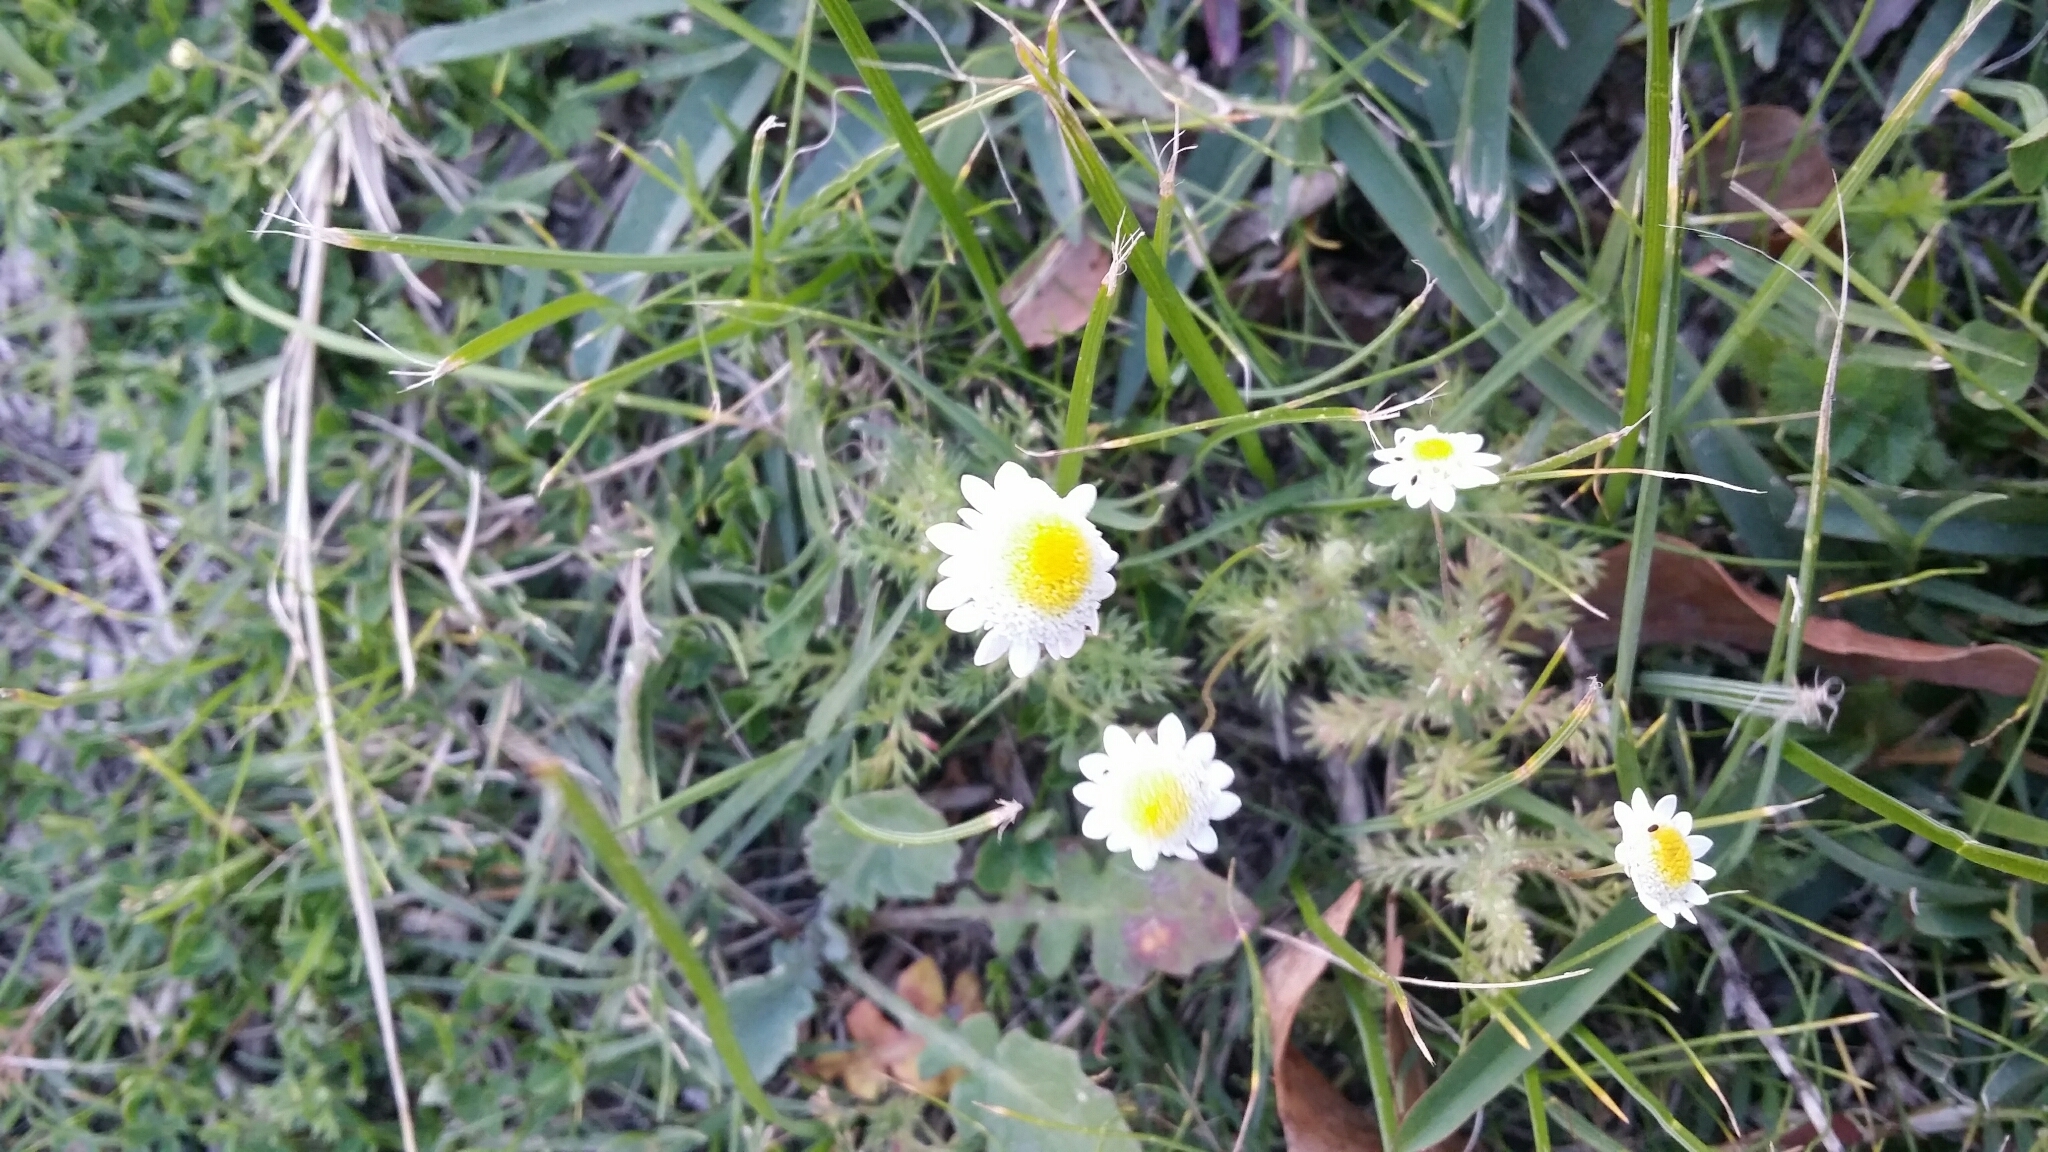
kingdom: Plantae
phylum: Tracheophyta
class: Magnoliopsida
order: Asterales
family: Asteraceae
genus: Cotula
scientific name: Cotula turbinata
